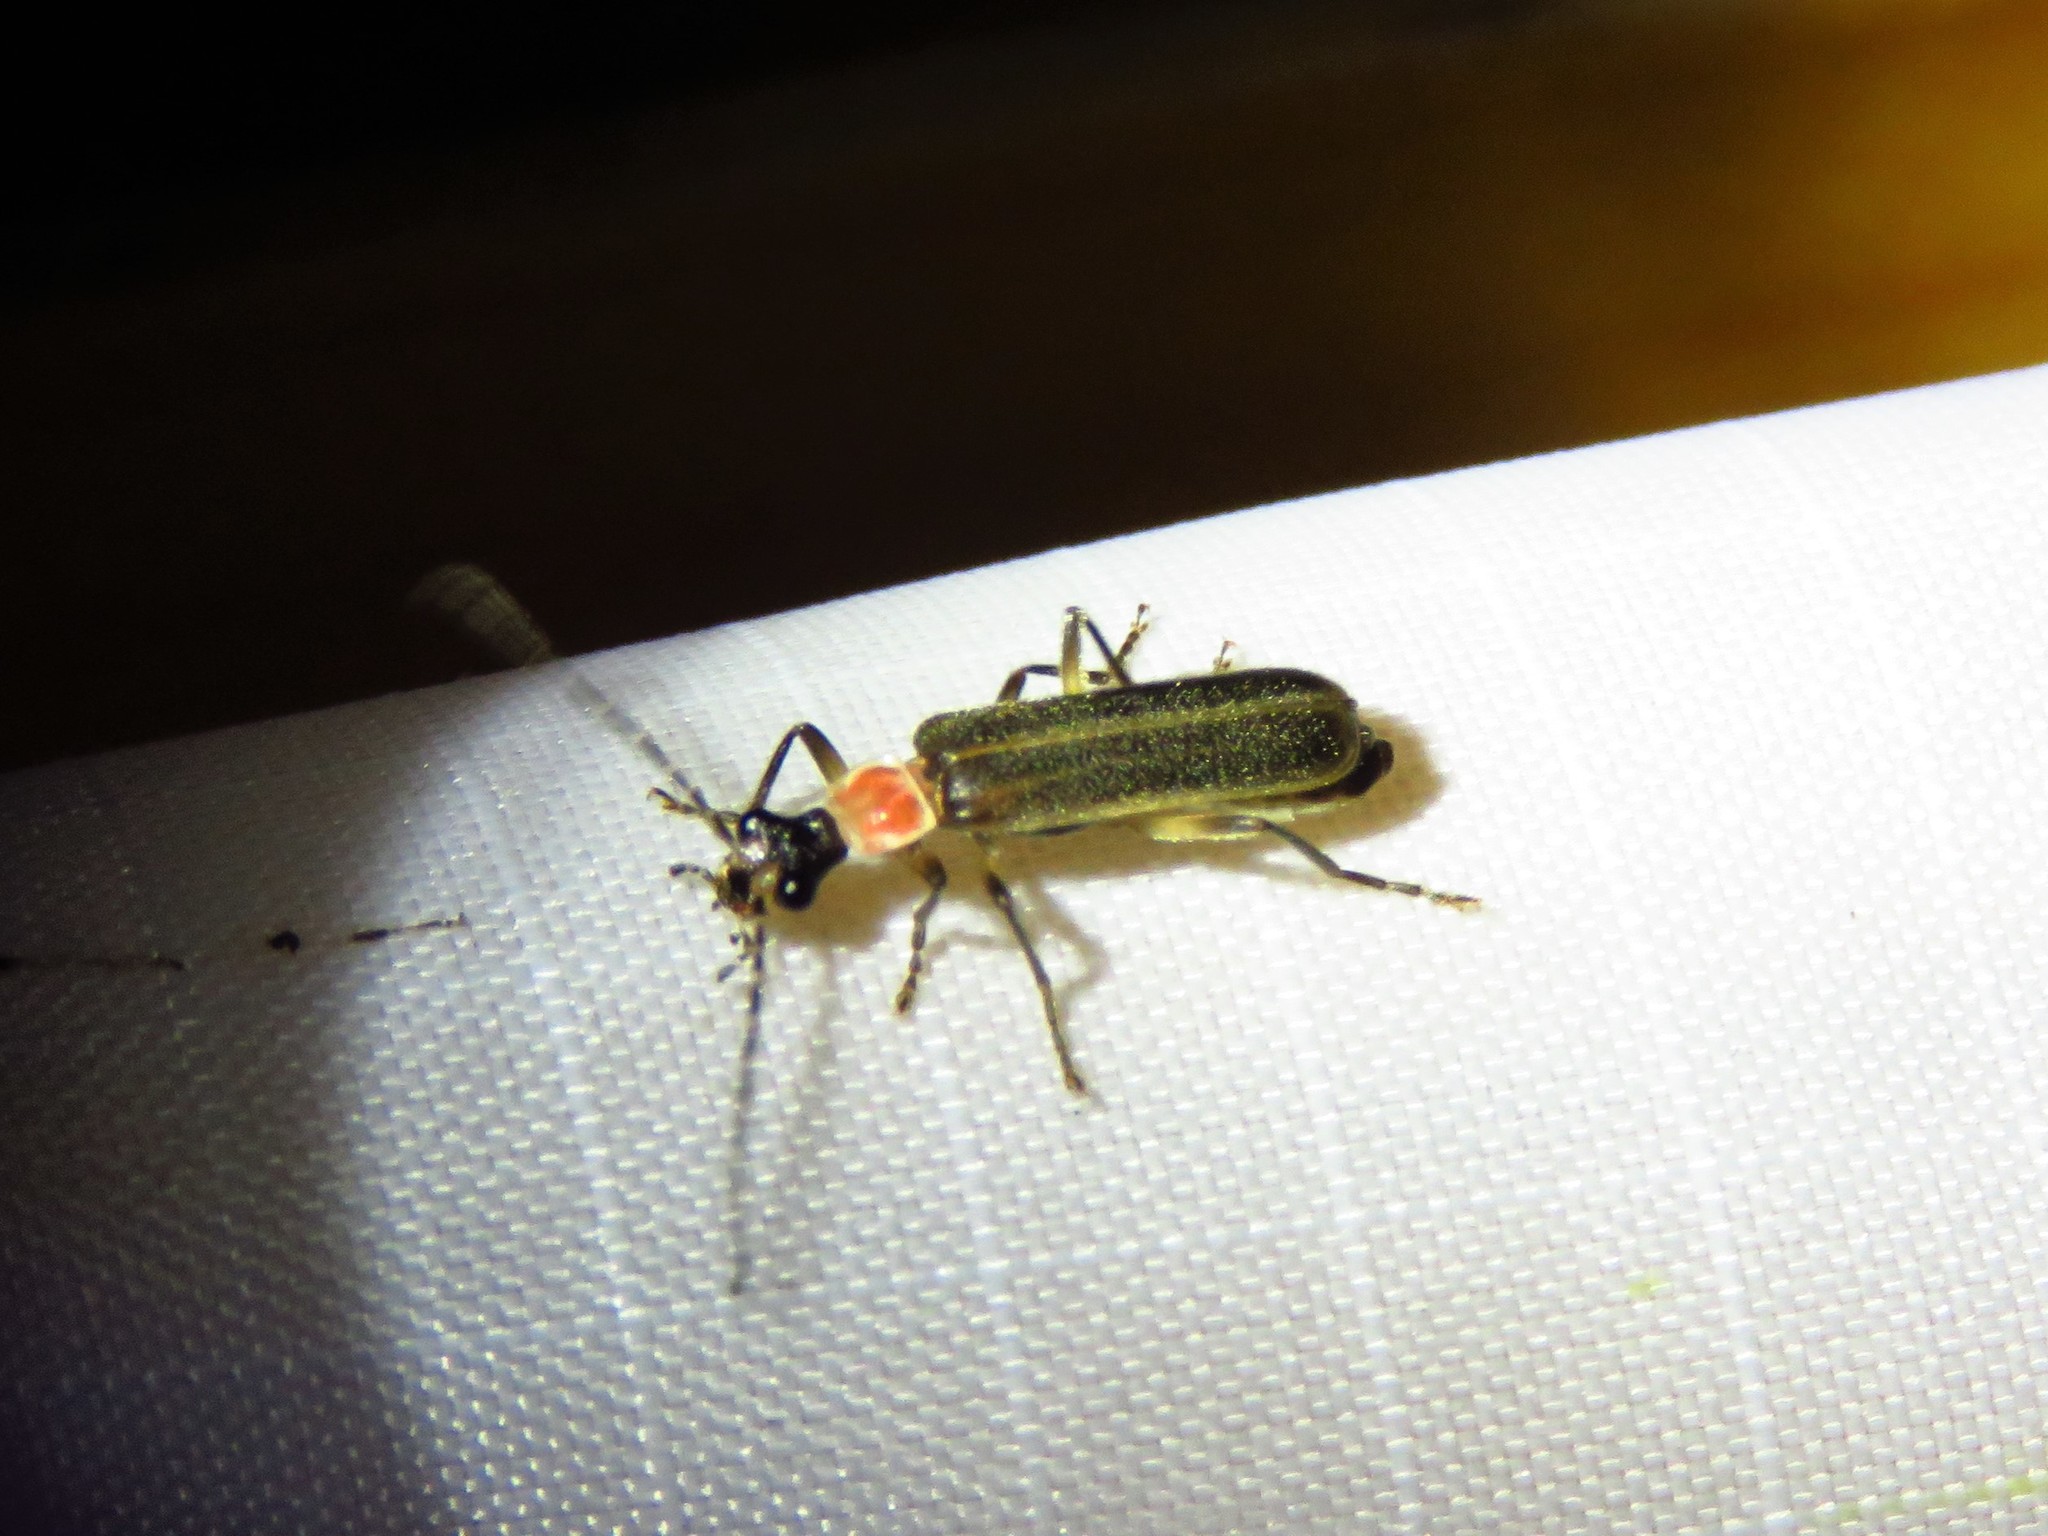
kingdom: Animalia
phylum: Arthropoda
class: Insecta
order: Coleoptera
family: Cantharidae
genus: Podabrus
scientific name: Podabrus quadratus
